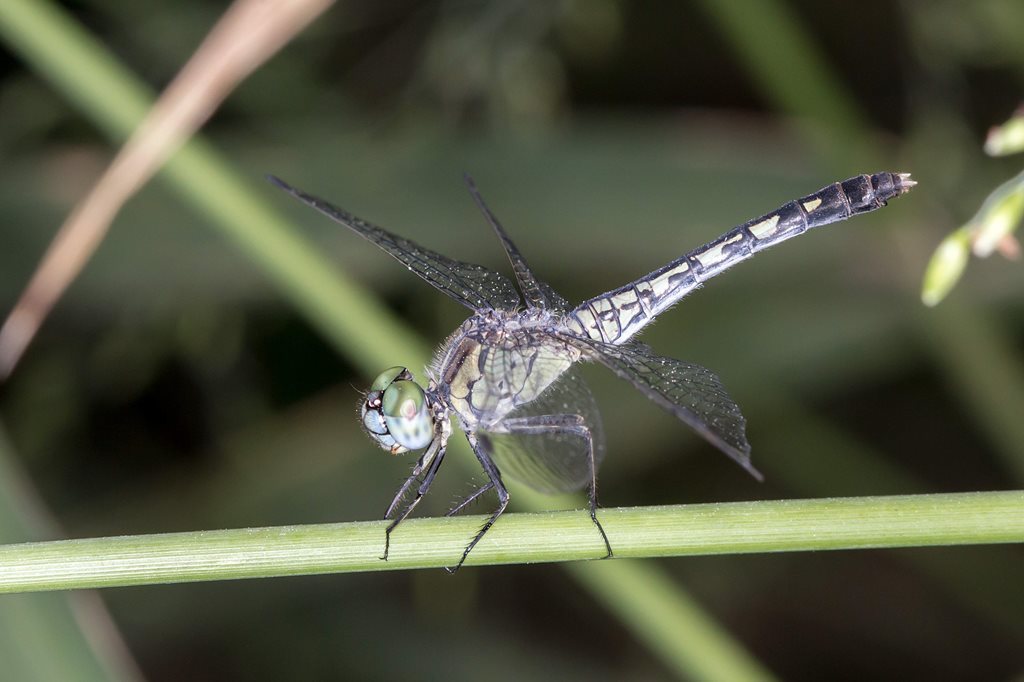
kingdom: Animalia
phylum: Arthropoda
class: Insecta
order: Odonata
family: Libellulidae
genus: Diplacodes
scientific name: Diplacodes trivialis
